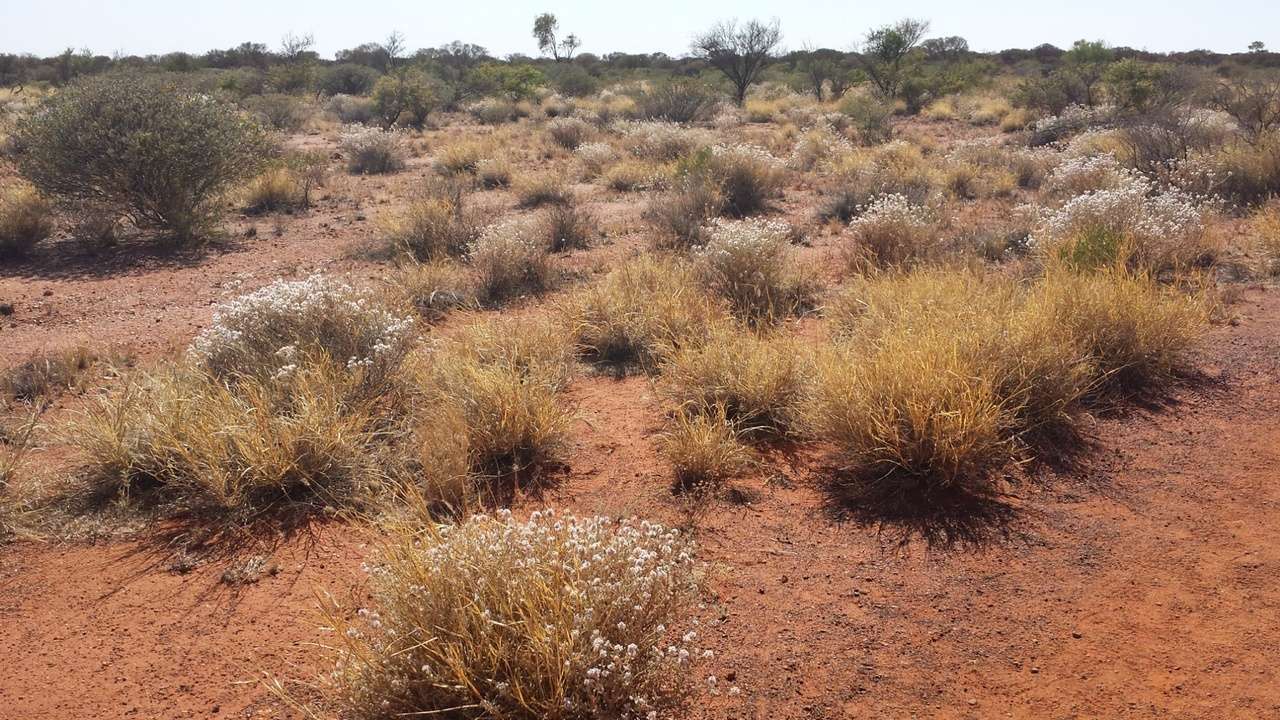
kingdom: Plantae
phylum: Tracheophyta
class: Magnoliopsida
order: Caryophyllales
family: Amaranthaceae
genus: Ptilotus
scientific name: Ptilotus obovatus
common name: Cottonbush
